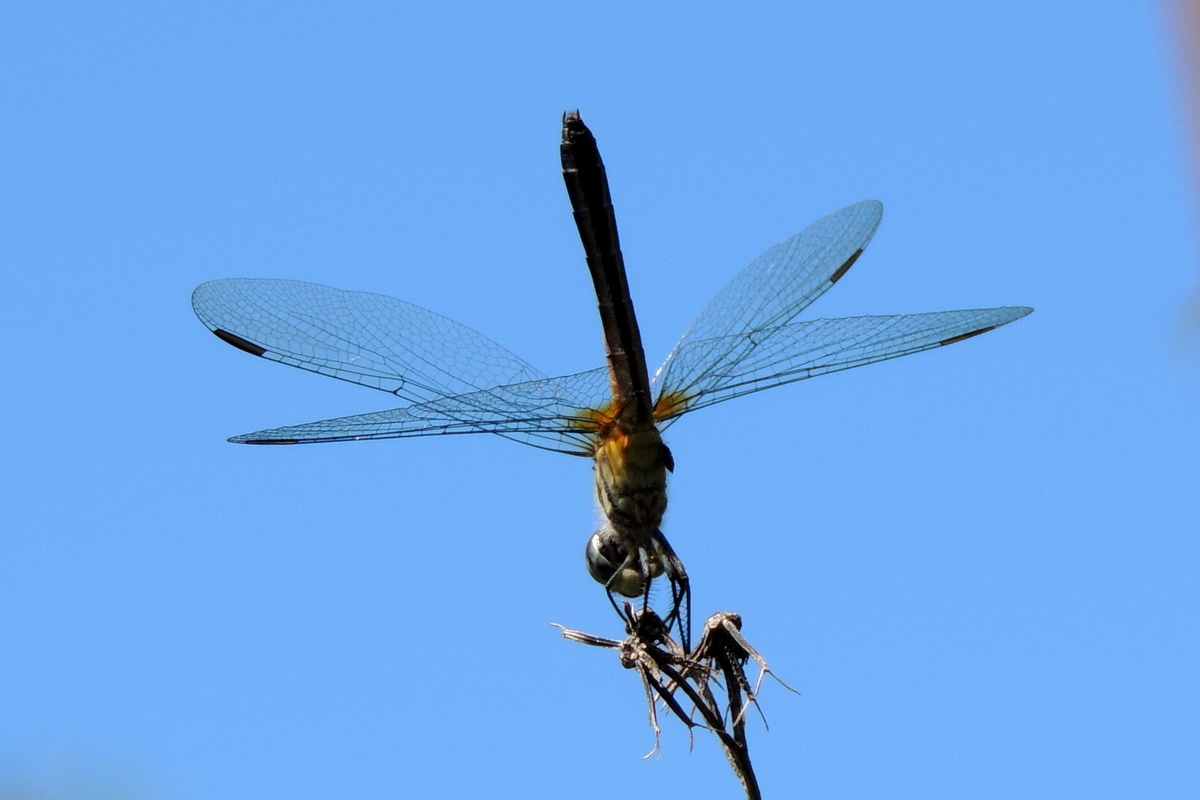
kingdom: Animalia
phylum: Arthropoda
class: Insecta
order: Odonata
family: Libellulidae
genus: Pachydiplax
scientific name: Pachydiplax longipennis
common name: Blue dasher
